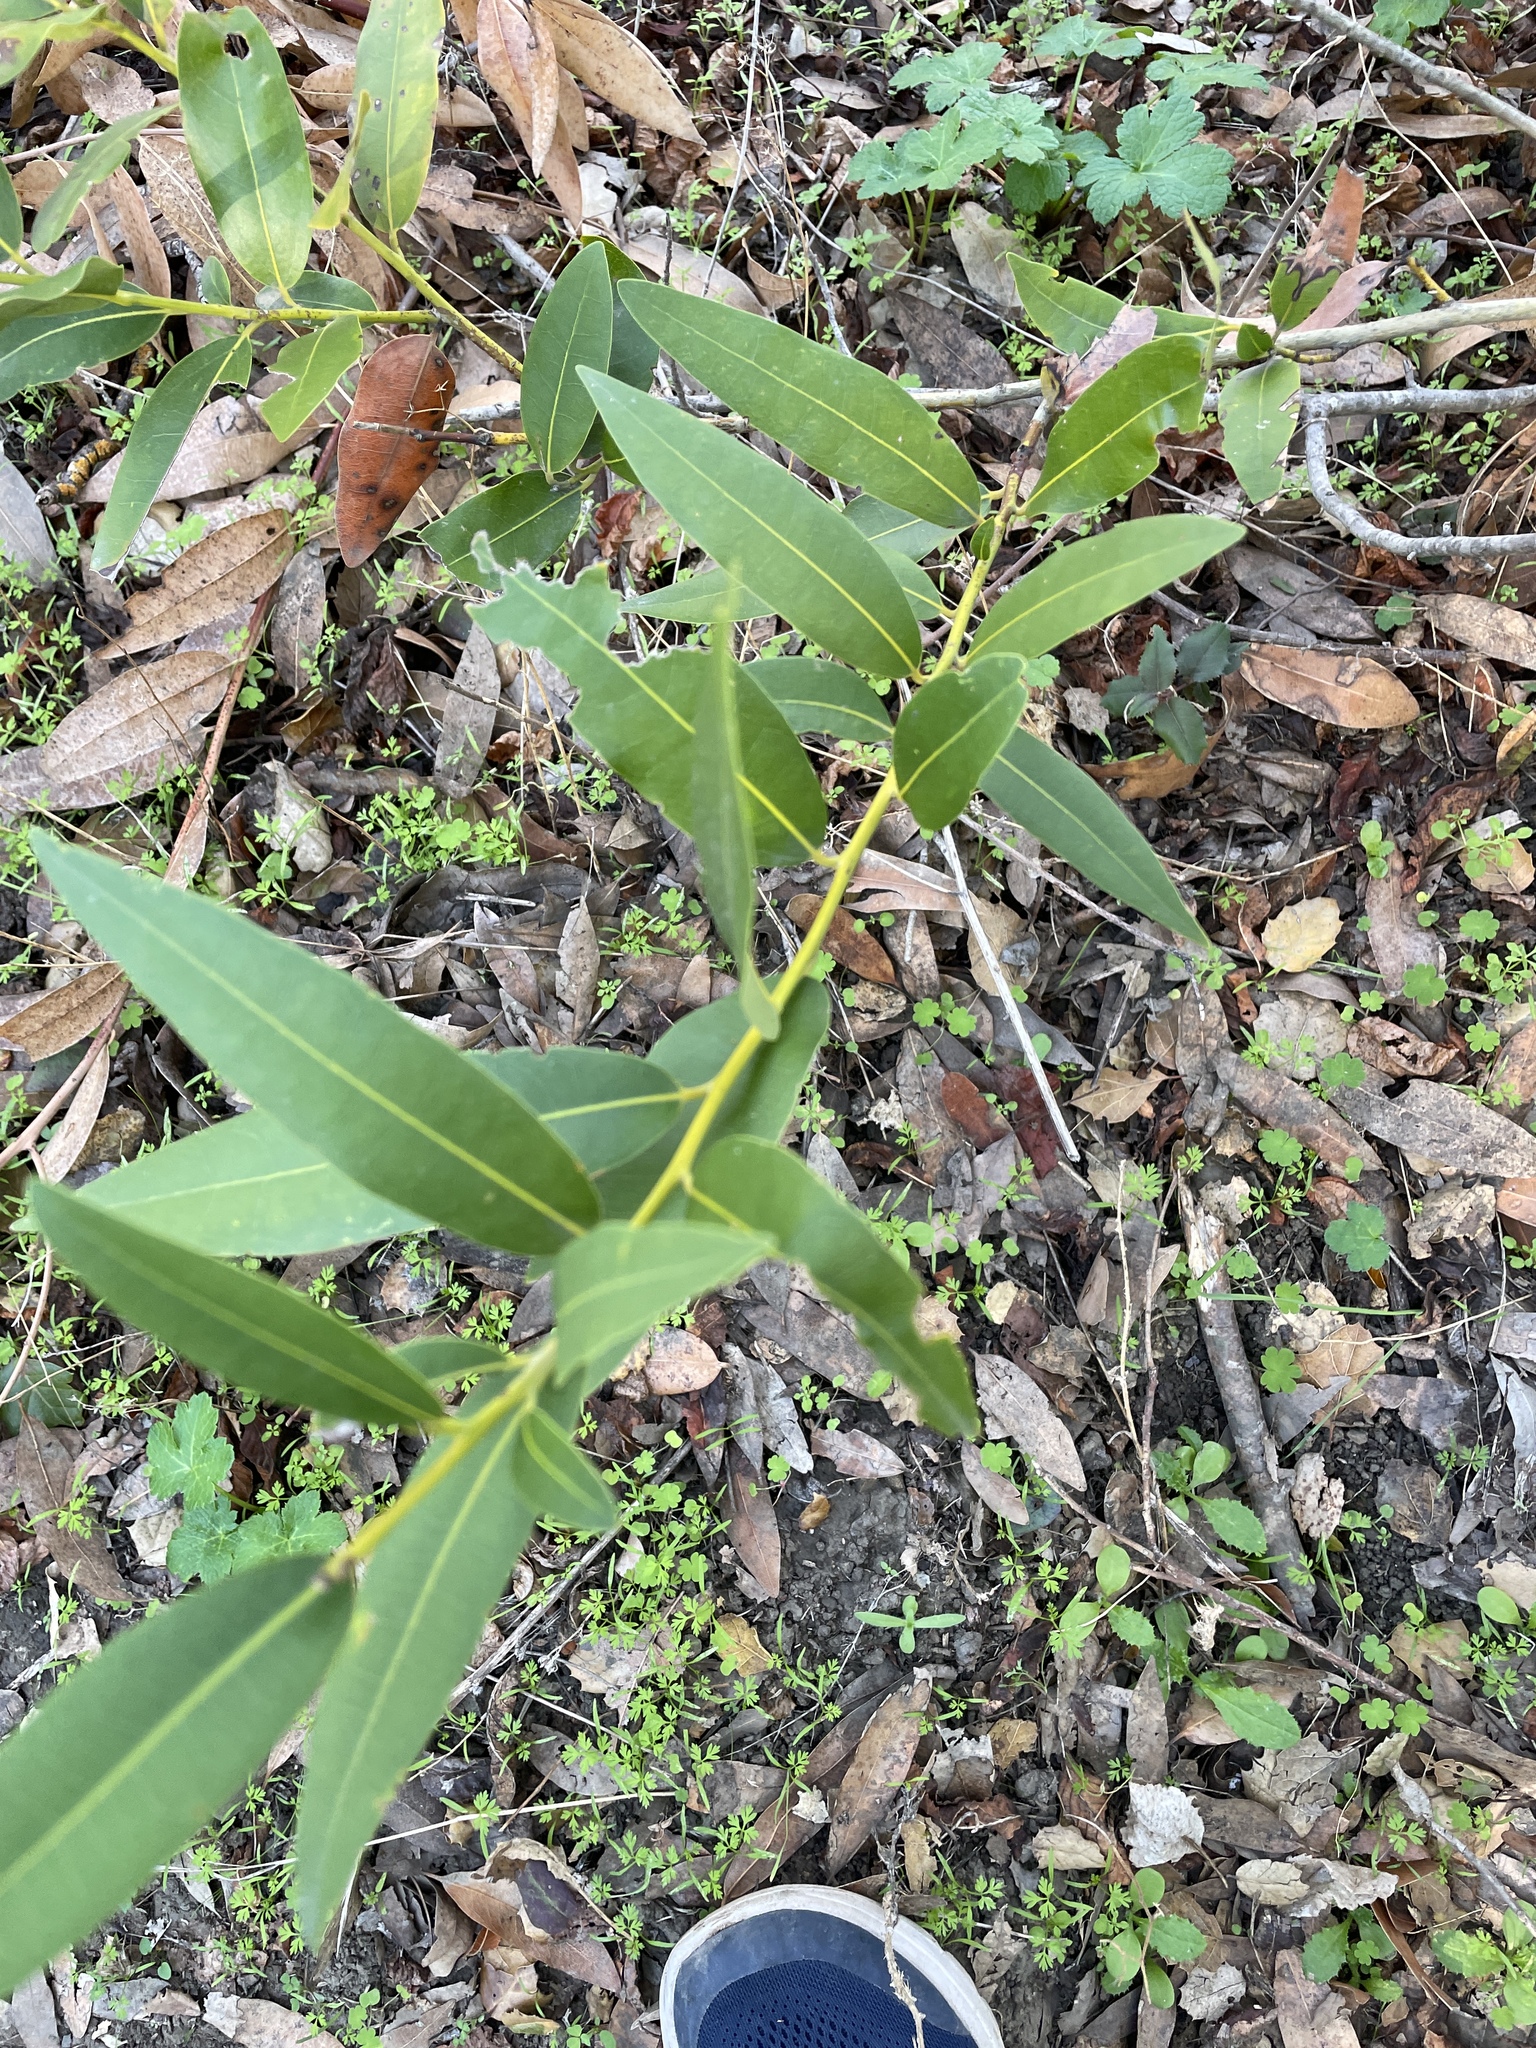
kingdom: Plantae
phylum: Tracheophyta
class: Magnoliopsida
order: Laurales
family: Lauraceae
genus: Umbellularia
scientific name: Umbellularia californica
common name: California bay
